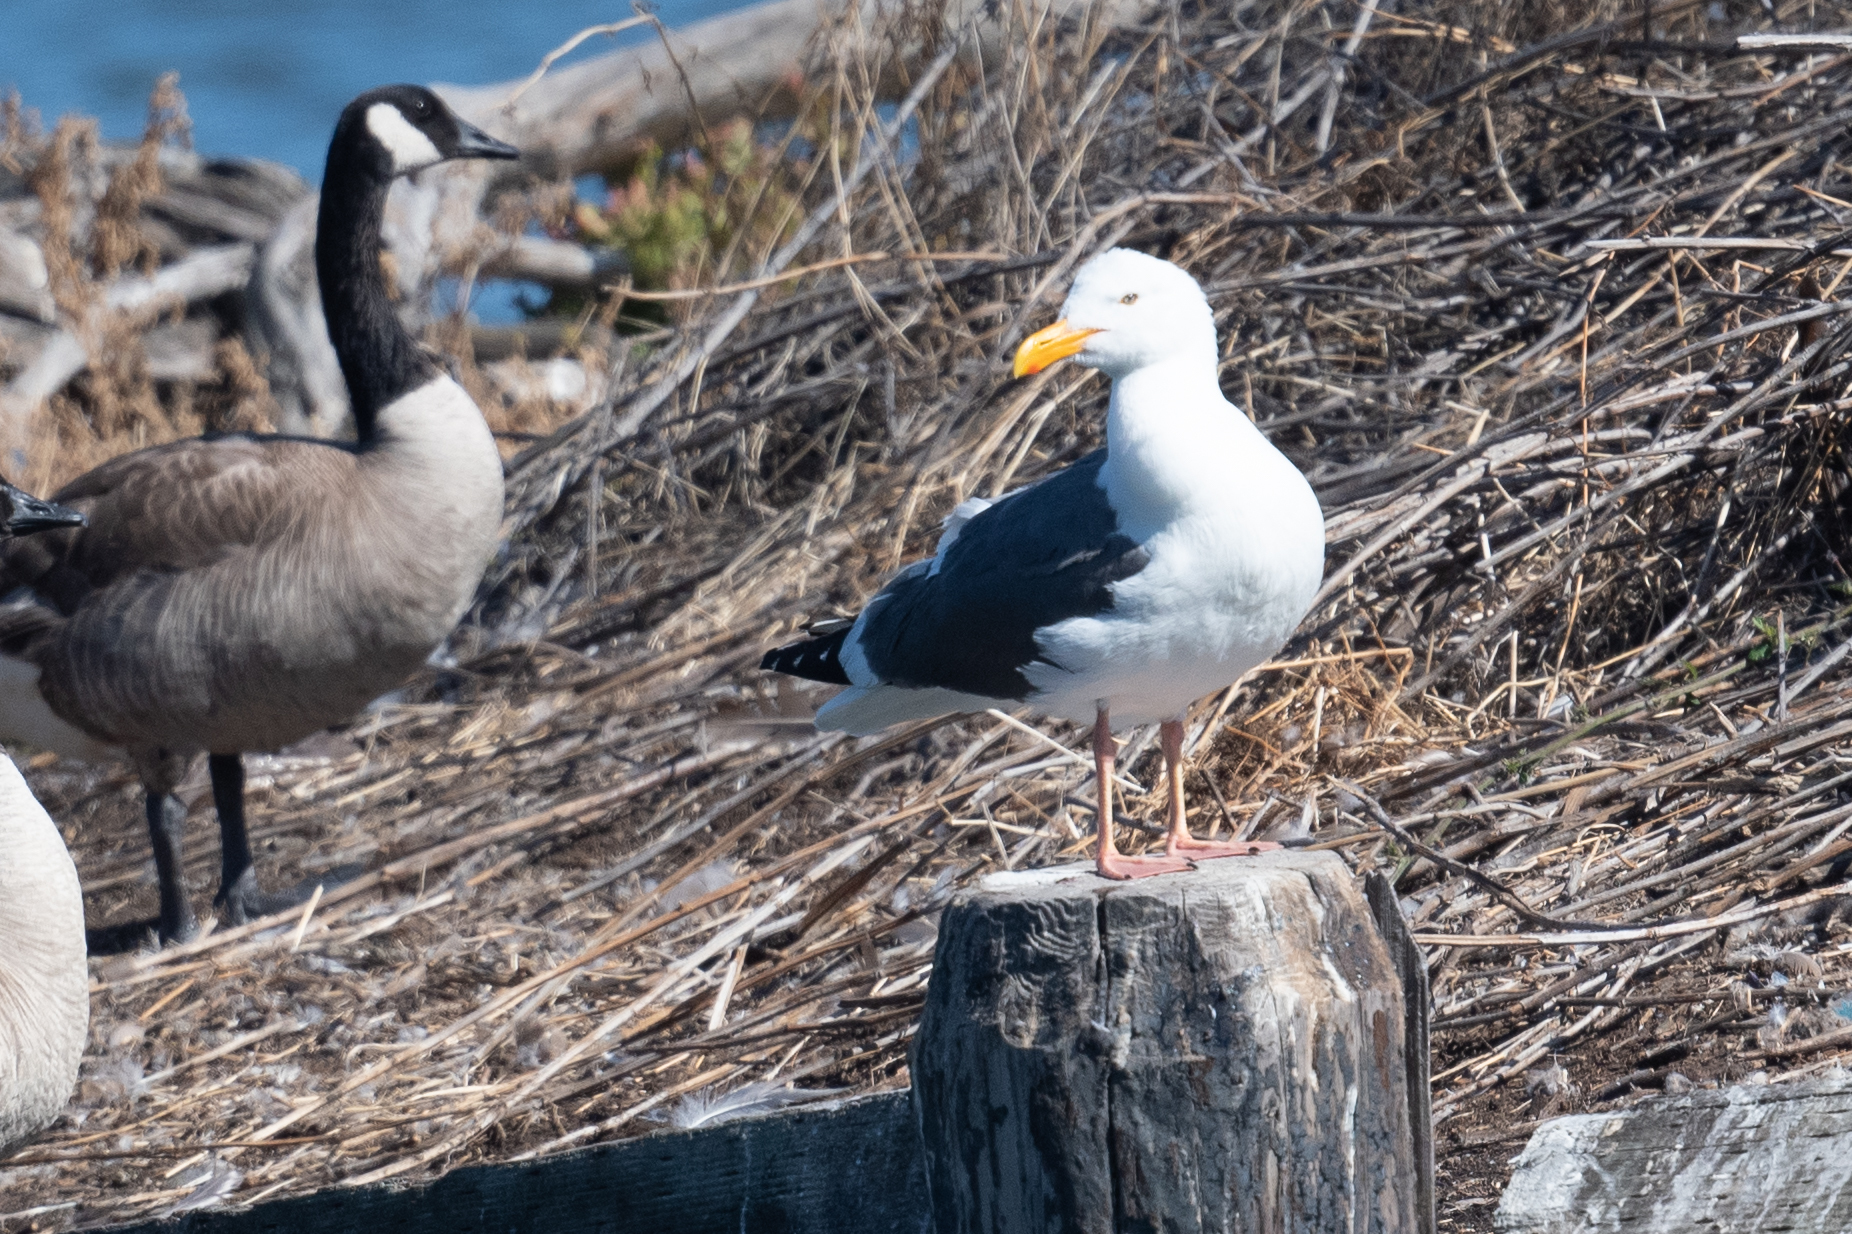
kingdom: Animalia
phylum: Chordata
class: Aves
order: Charadriiformes
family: Laridae
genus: Larus
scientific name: Larus occidentalis
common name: Western gull
